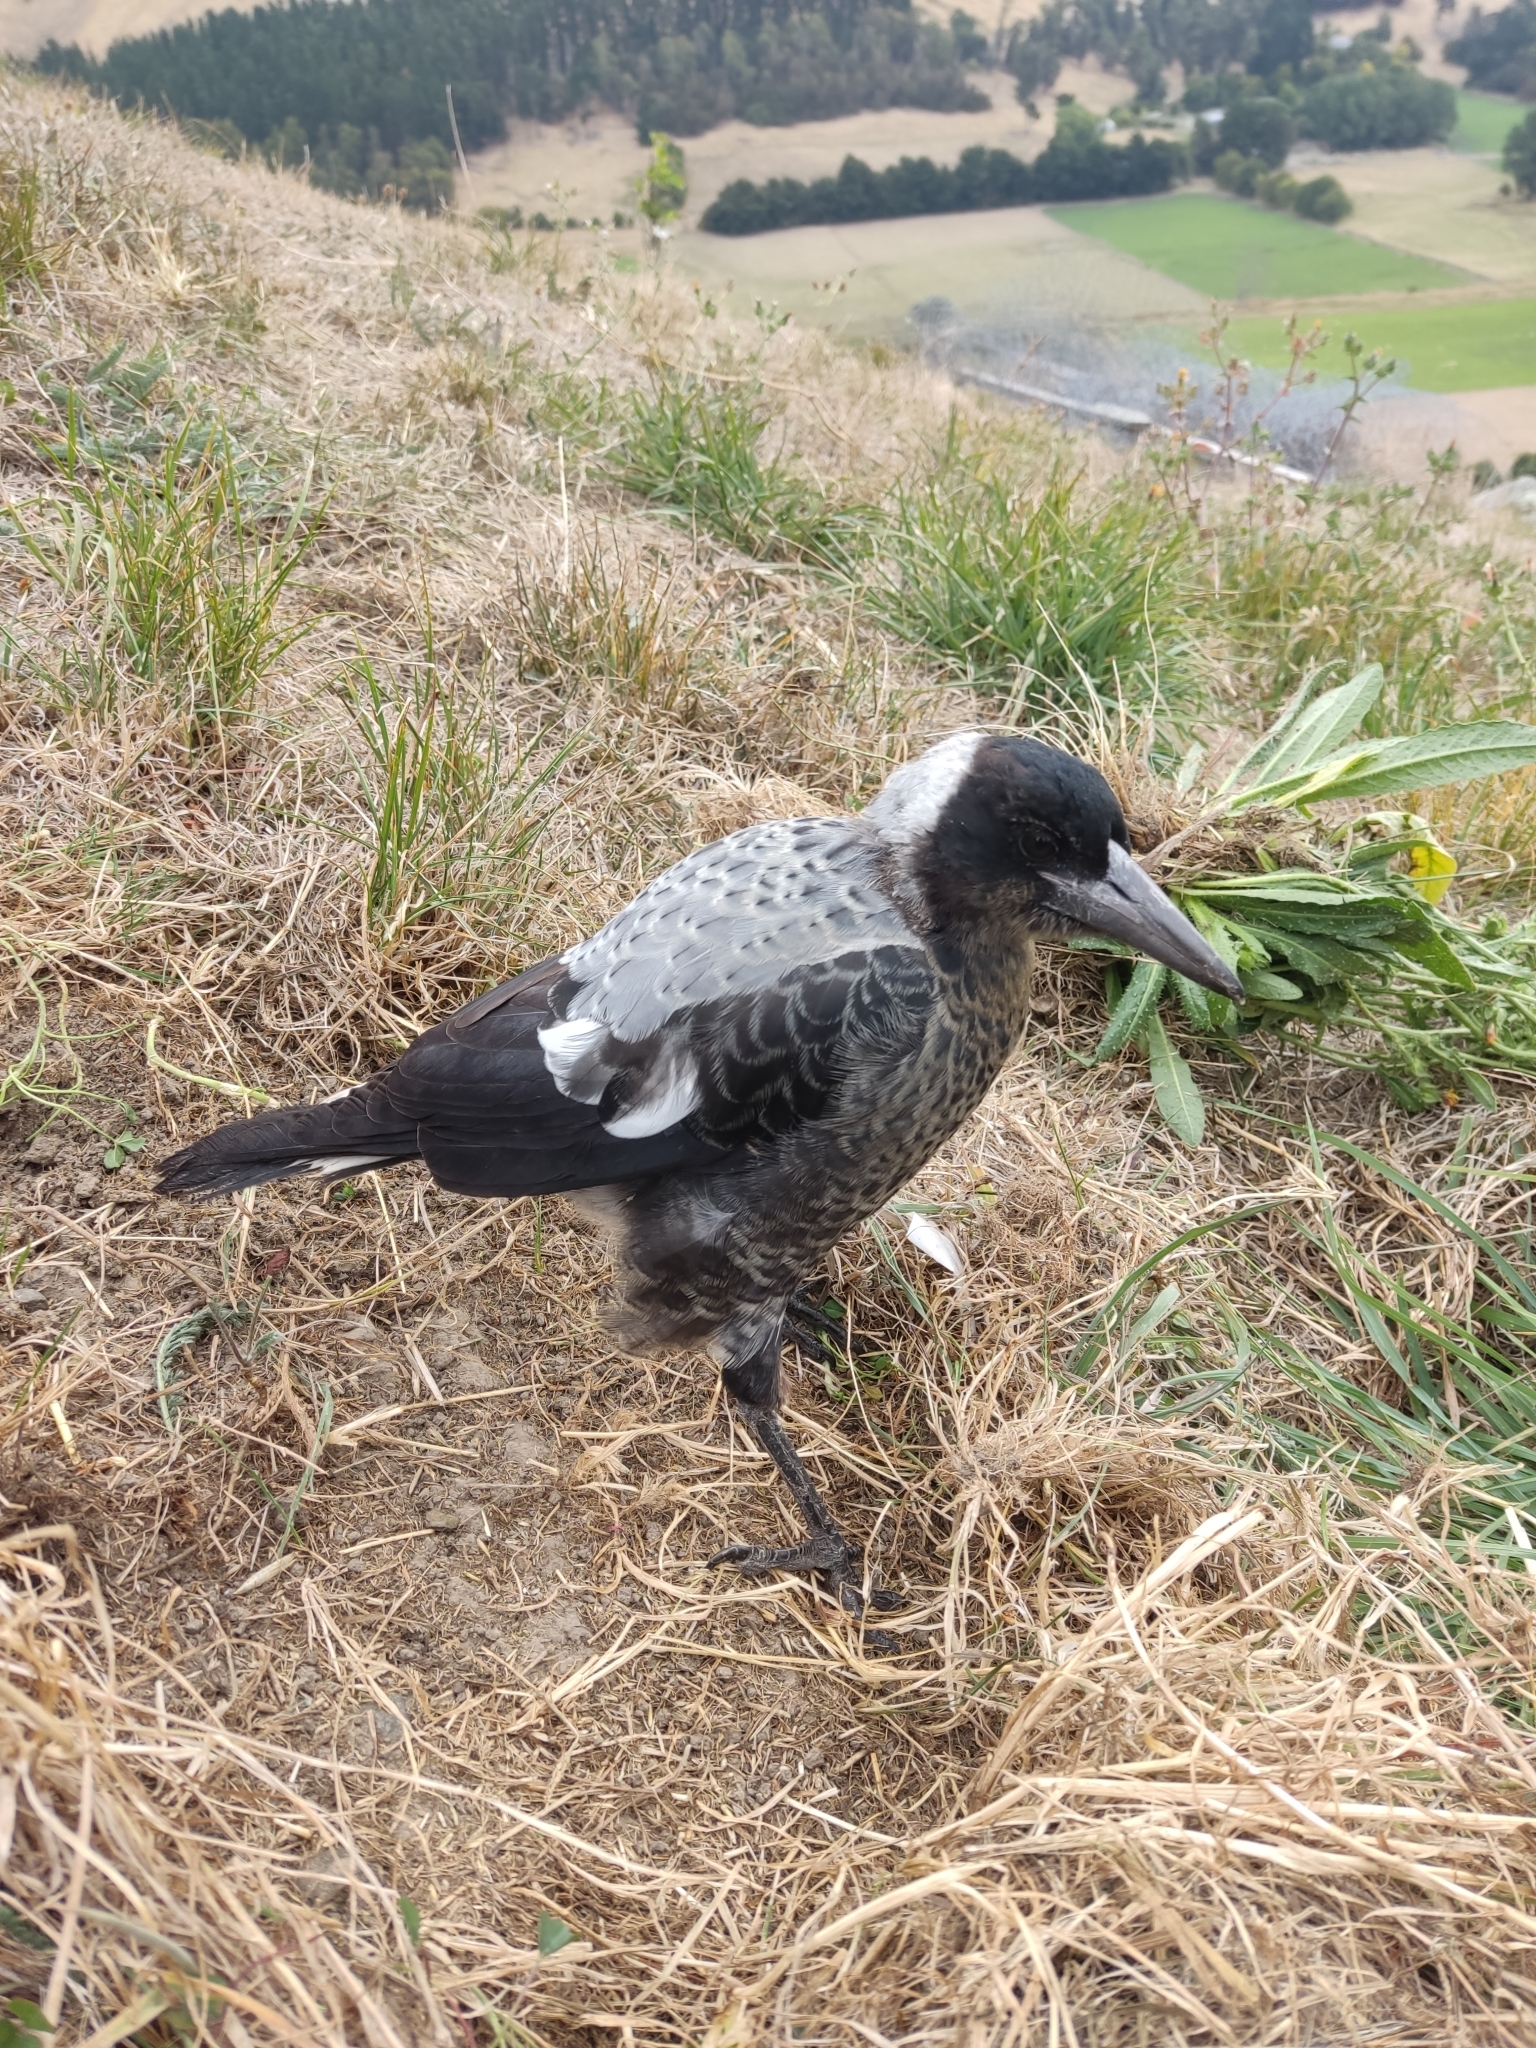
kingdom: Animalia
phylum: Chordata
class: Aves
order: Passeriformes
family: Cracticidae
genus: Gymnorhina
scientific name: Gymnorhina tibicen
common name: Australian magpie
